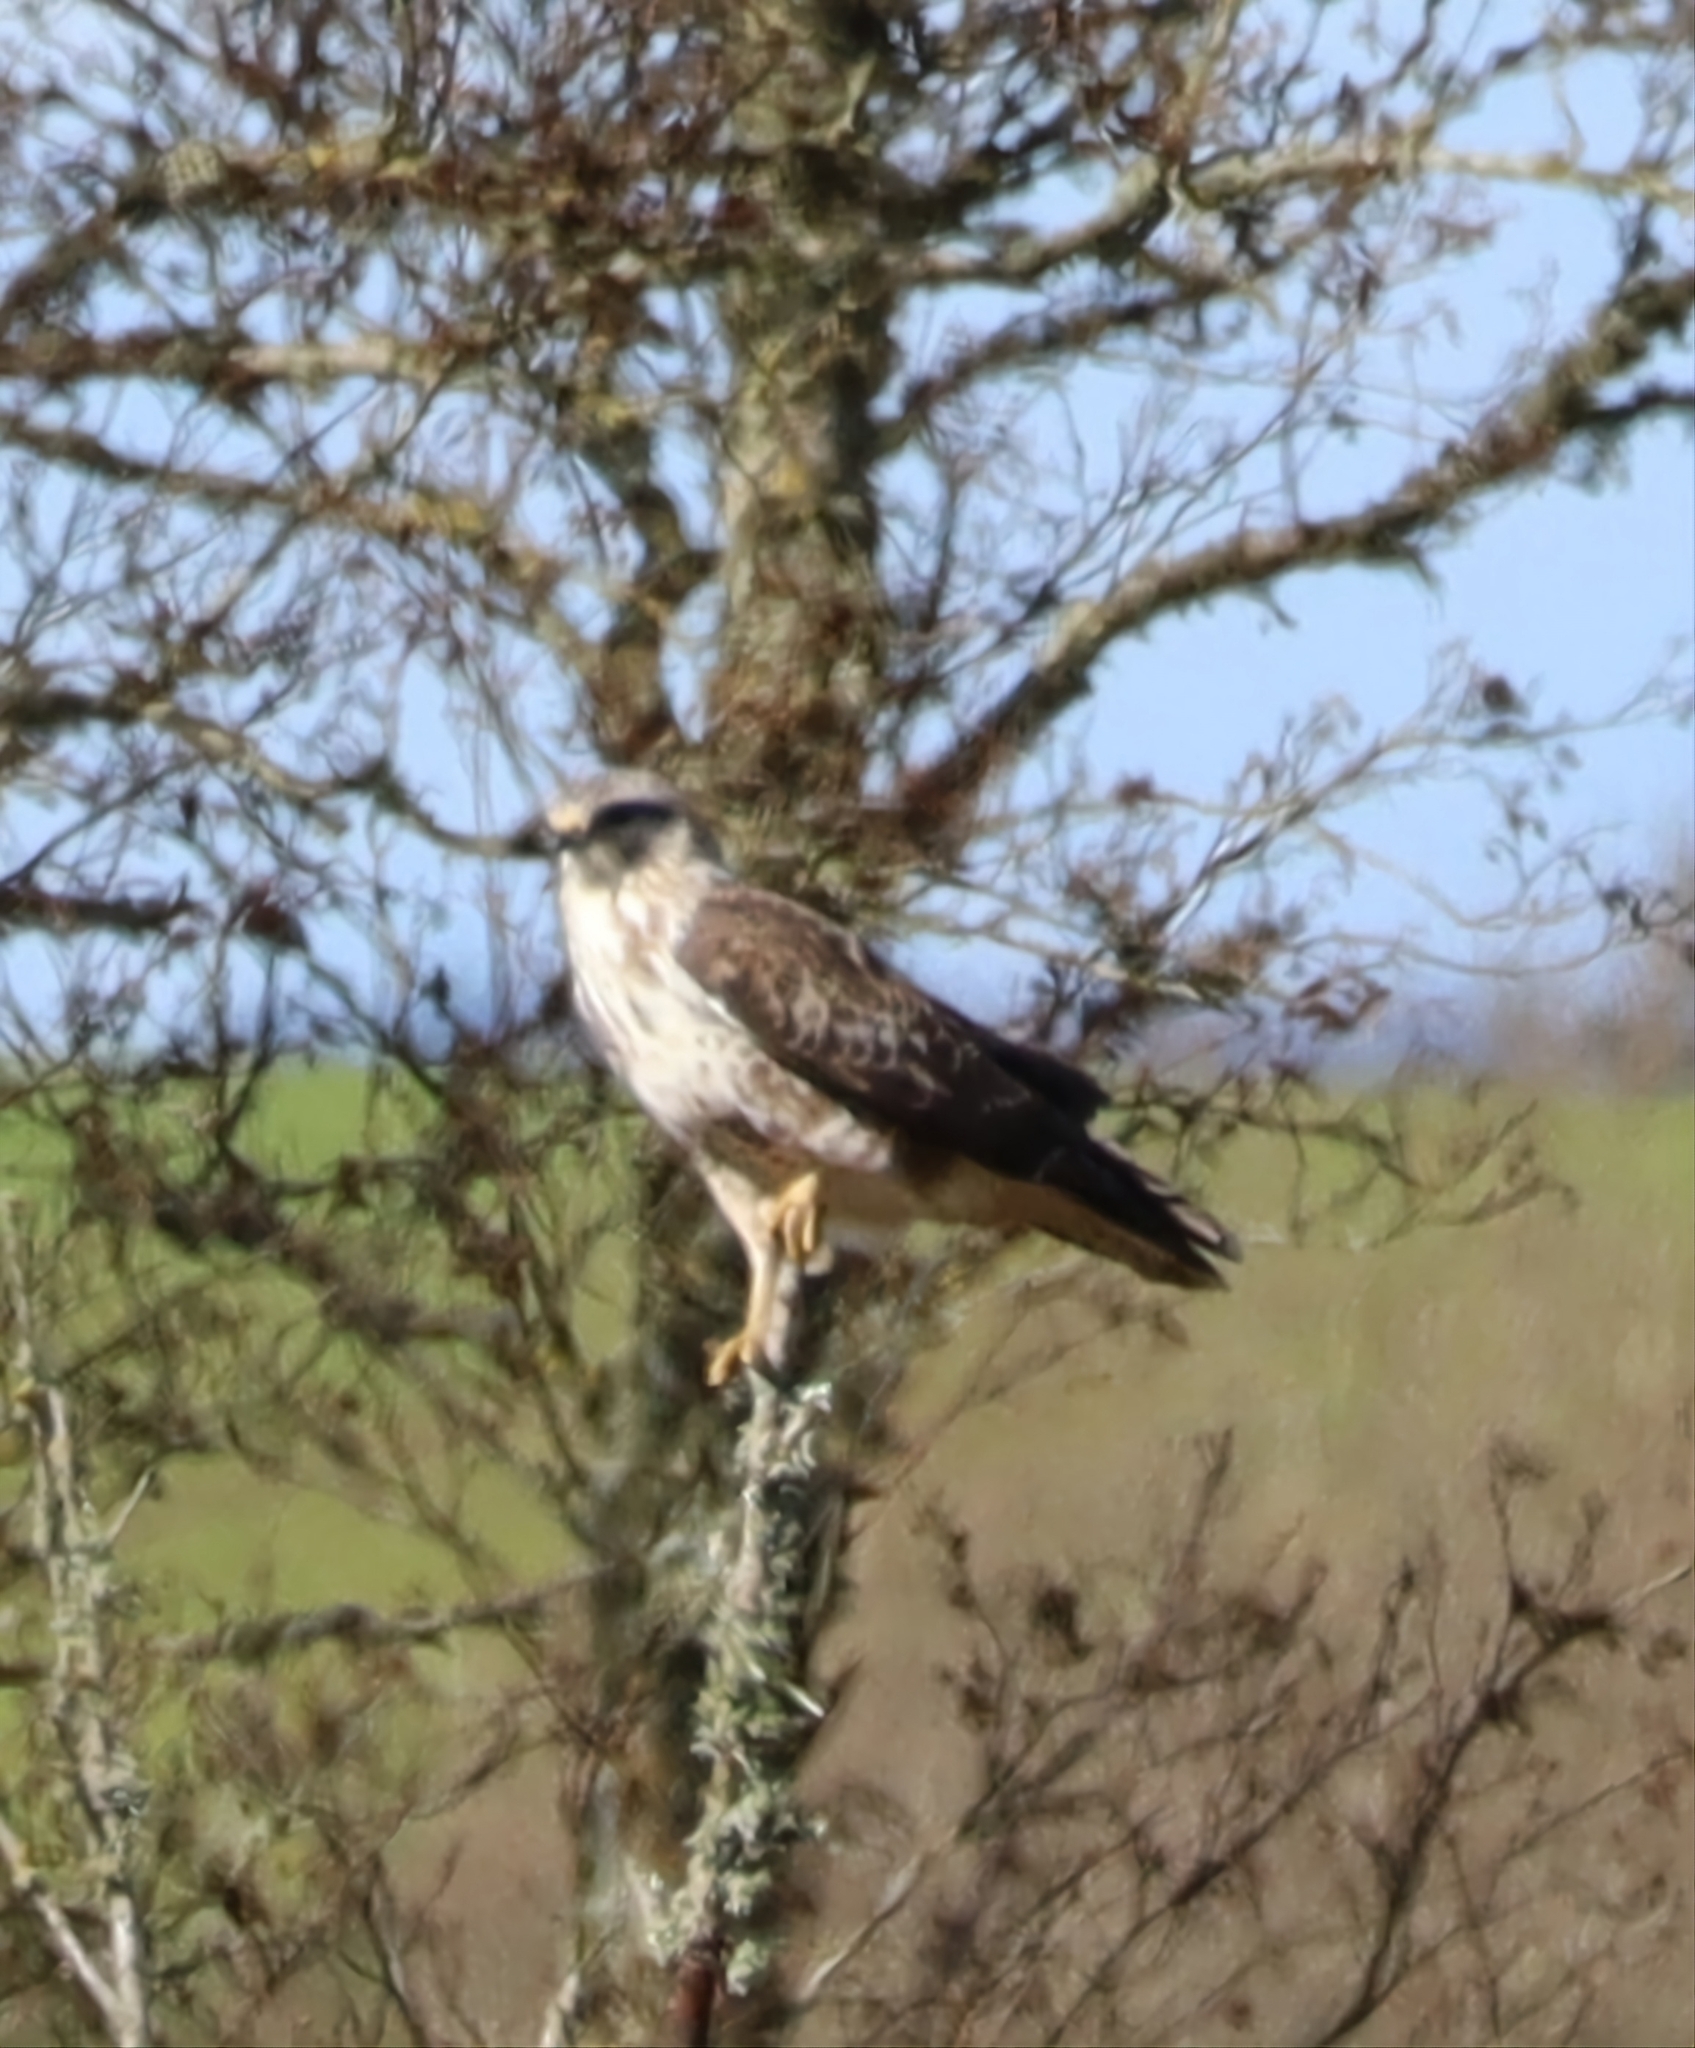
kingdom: Animalia
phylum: Chordata
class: Aves
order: Accipitriformes
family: Accipitridae
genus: Buteo
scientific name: Buteo buteo
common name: Common buzzard
